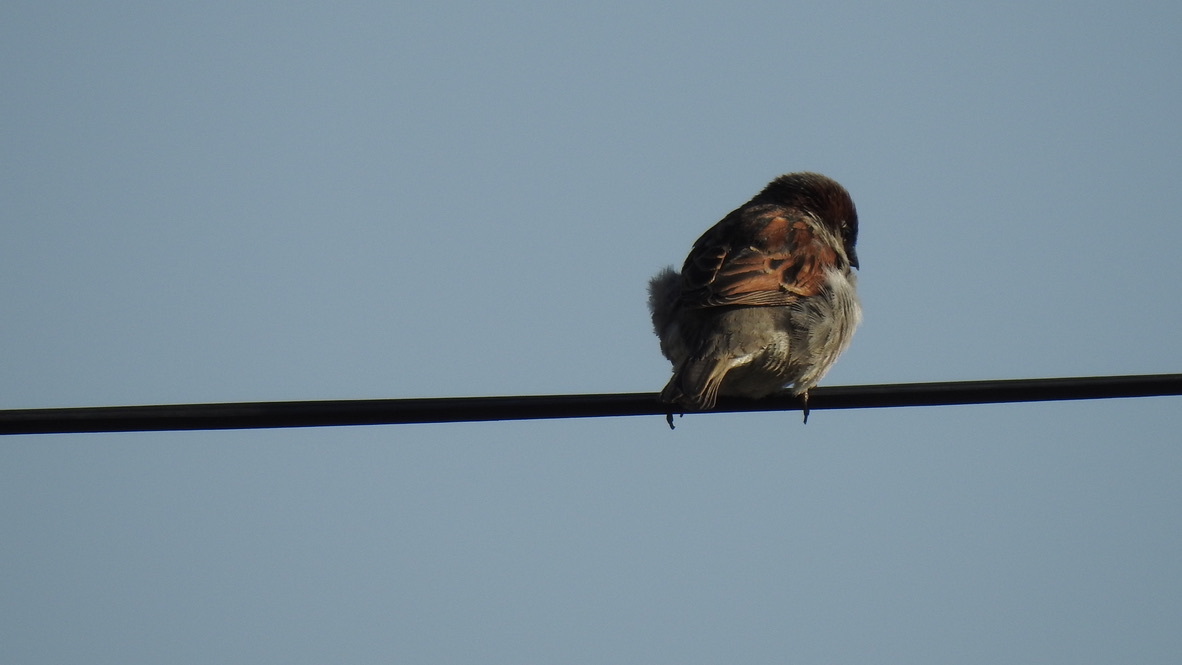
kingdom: Animalia
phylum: Chordata
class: Aves
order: Passeriformes
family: Passeridae
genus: Passer
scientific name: Passer domesticus
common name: House sparrow
